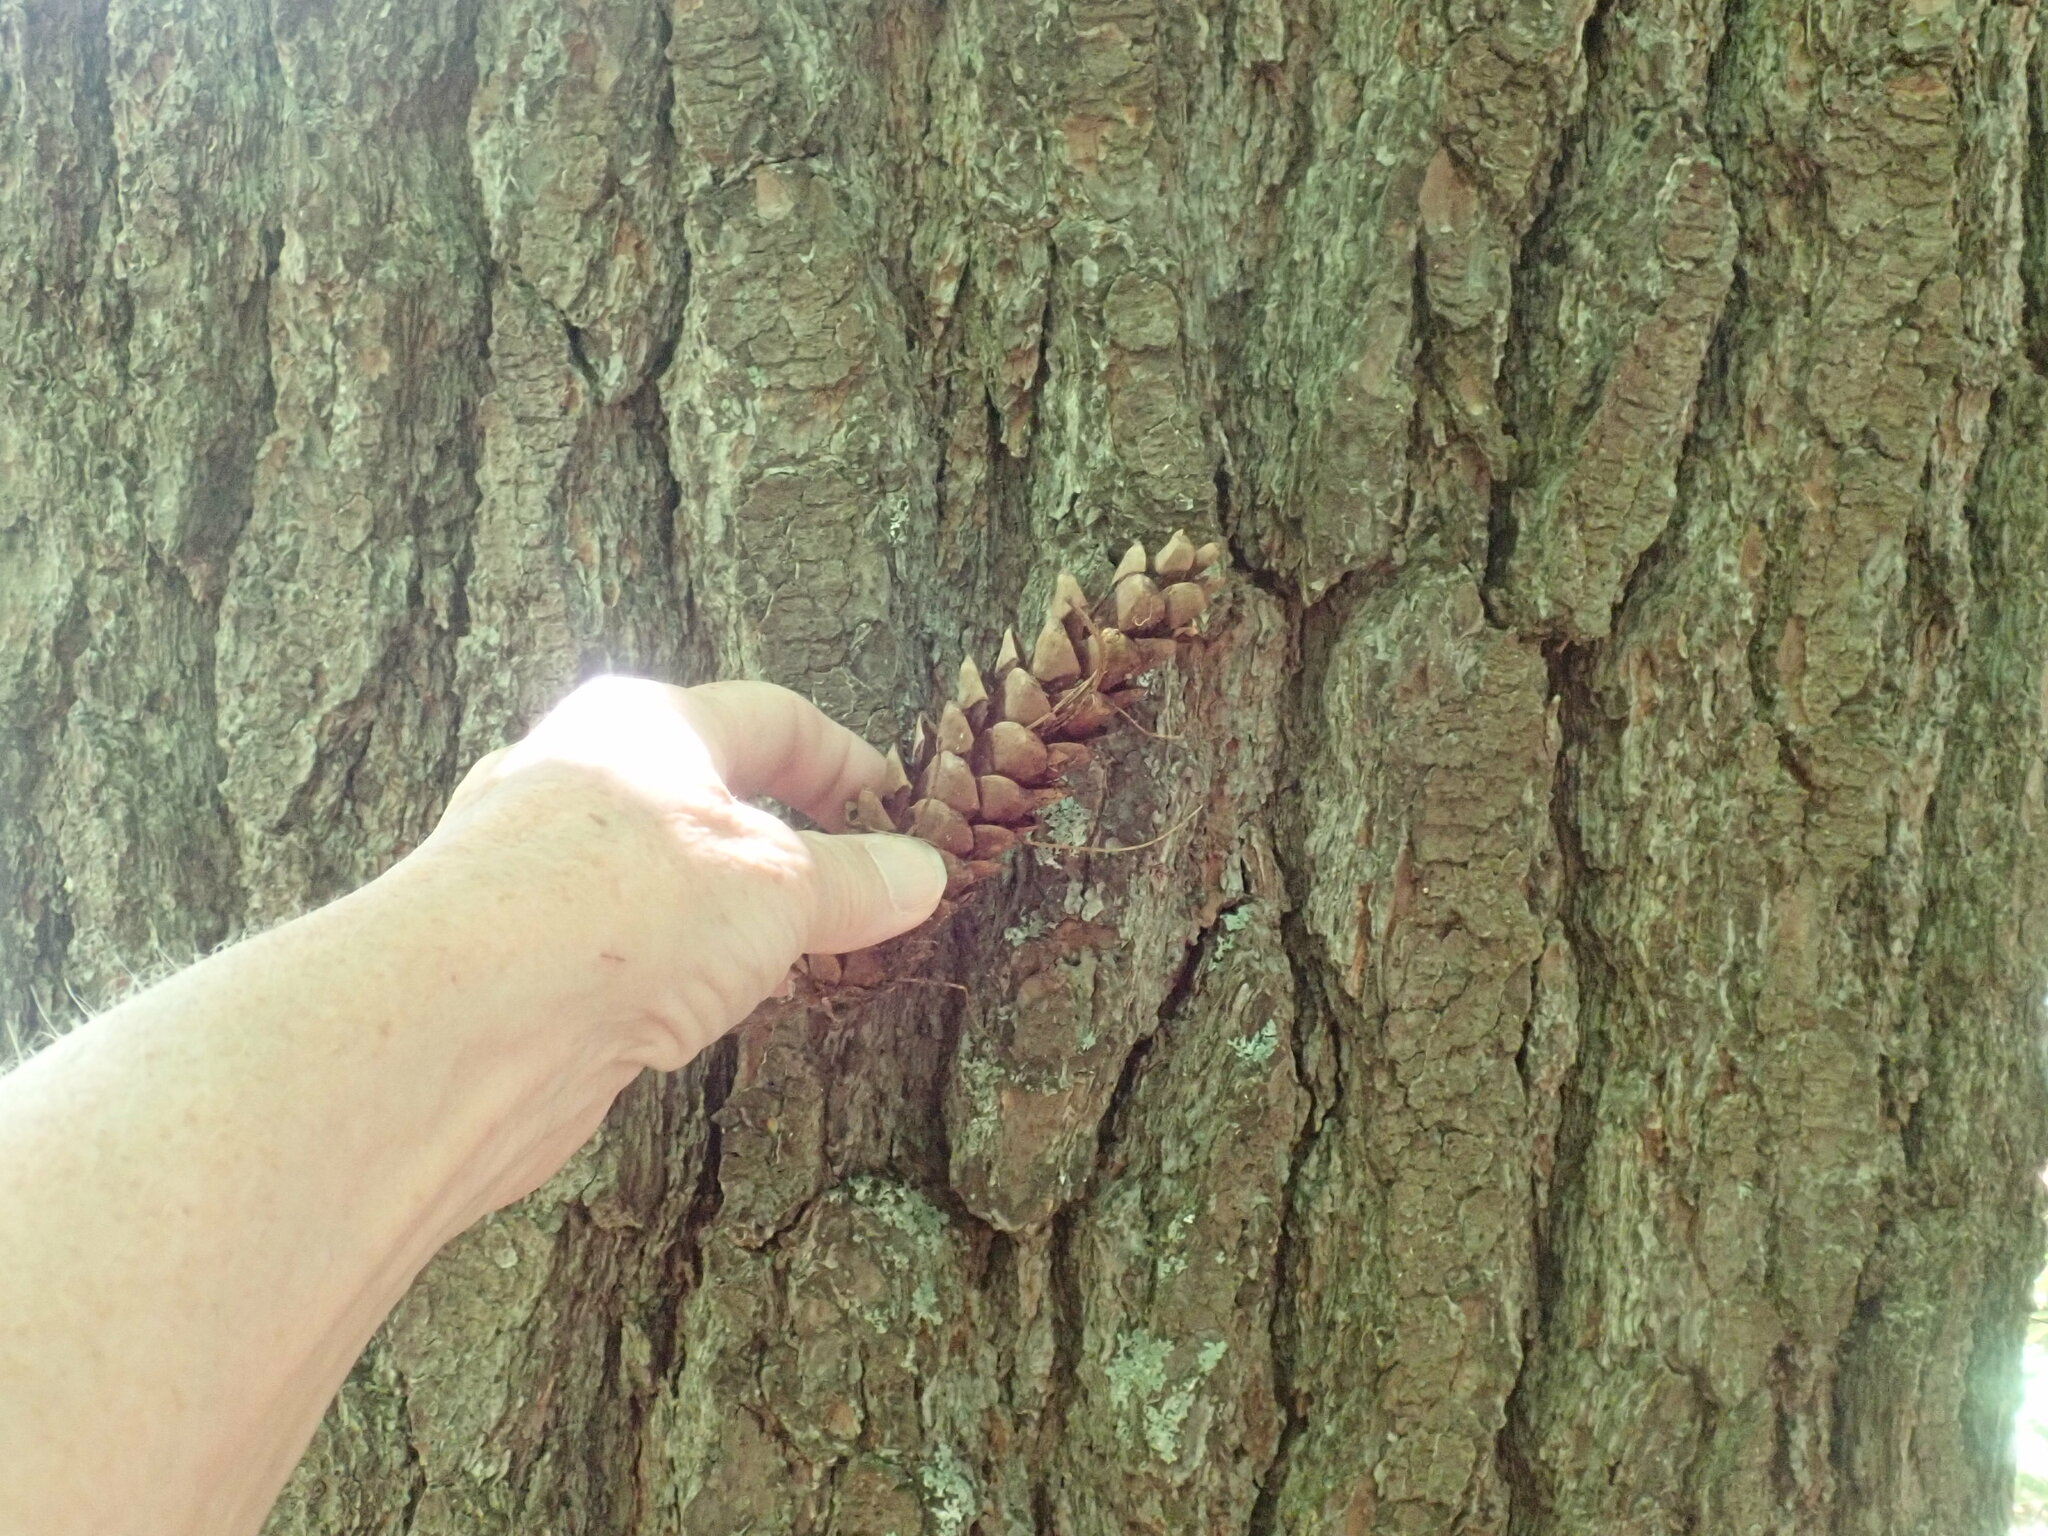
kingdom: Plantae
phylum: Tracheophyta
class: Pinopsida
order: Pinales
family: Pinaceae
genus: Pinus
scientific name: Pinus strobus
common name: Weymouth pine
